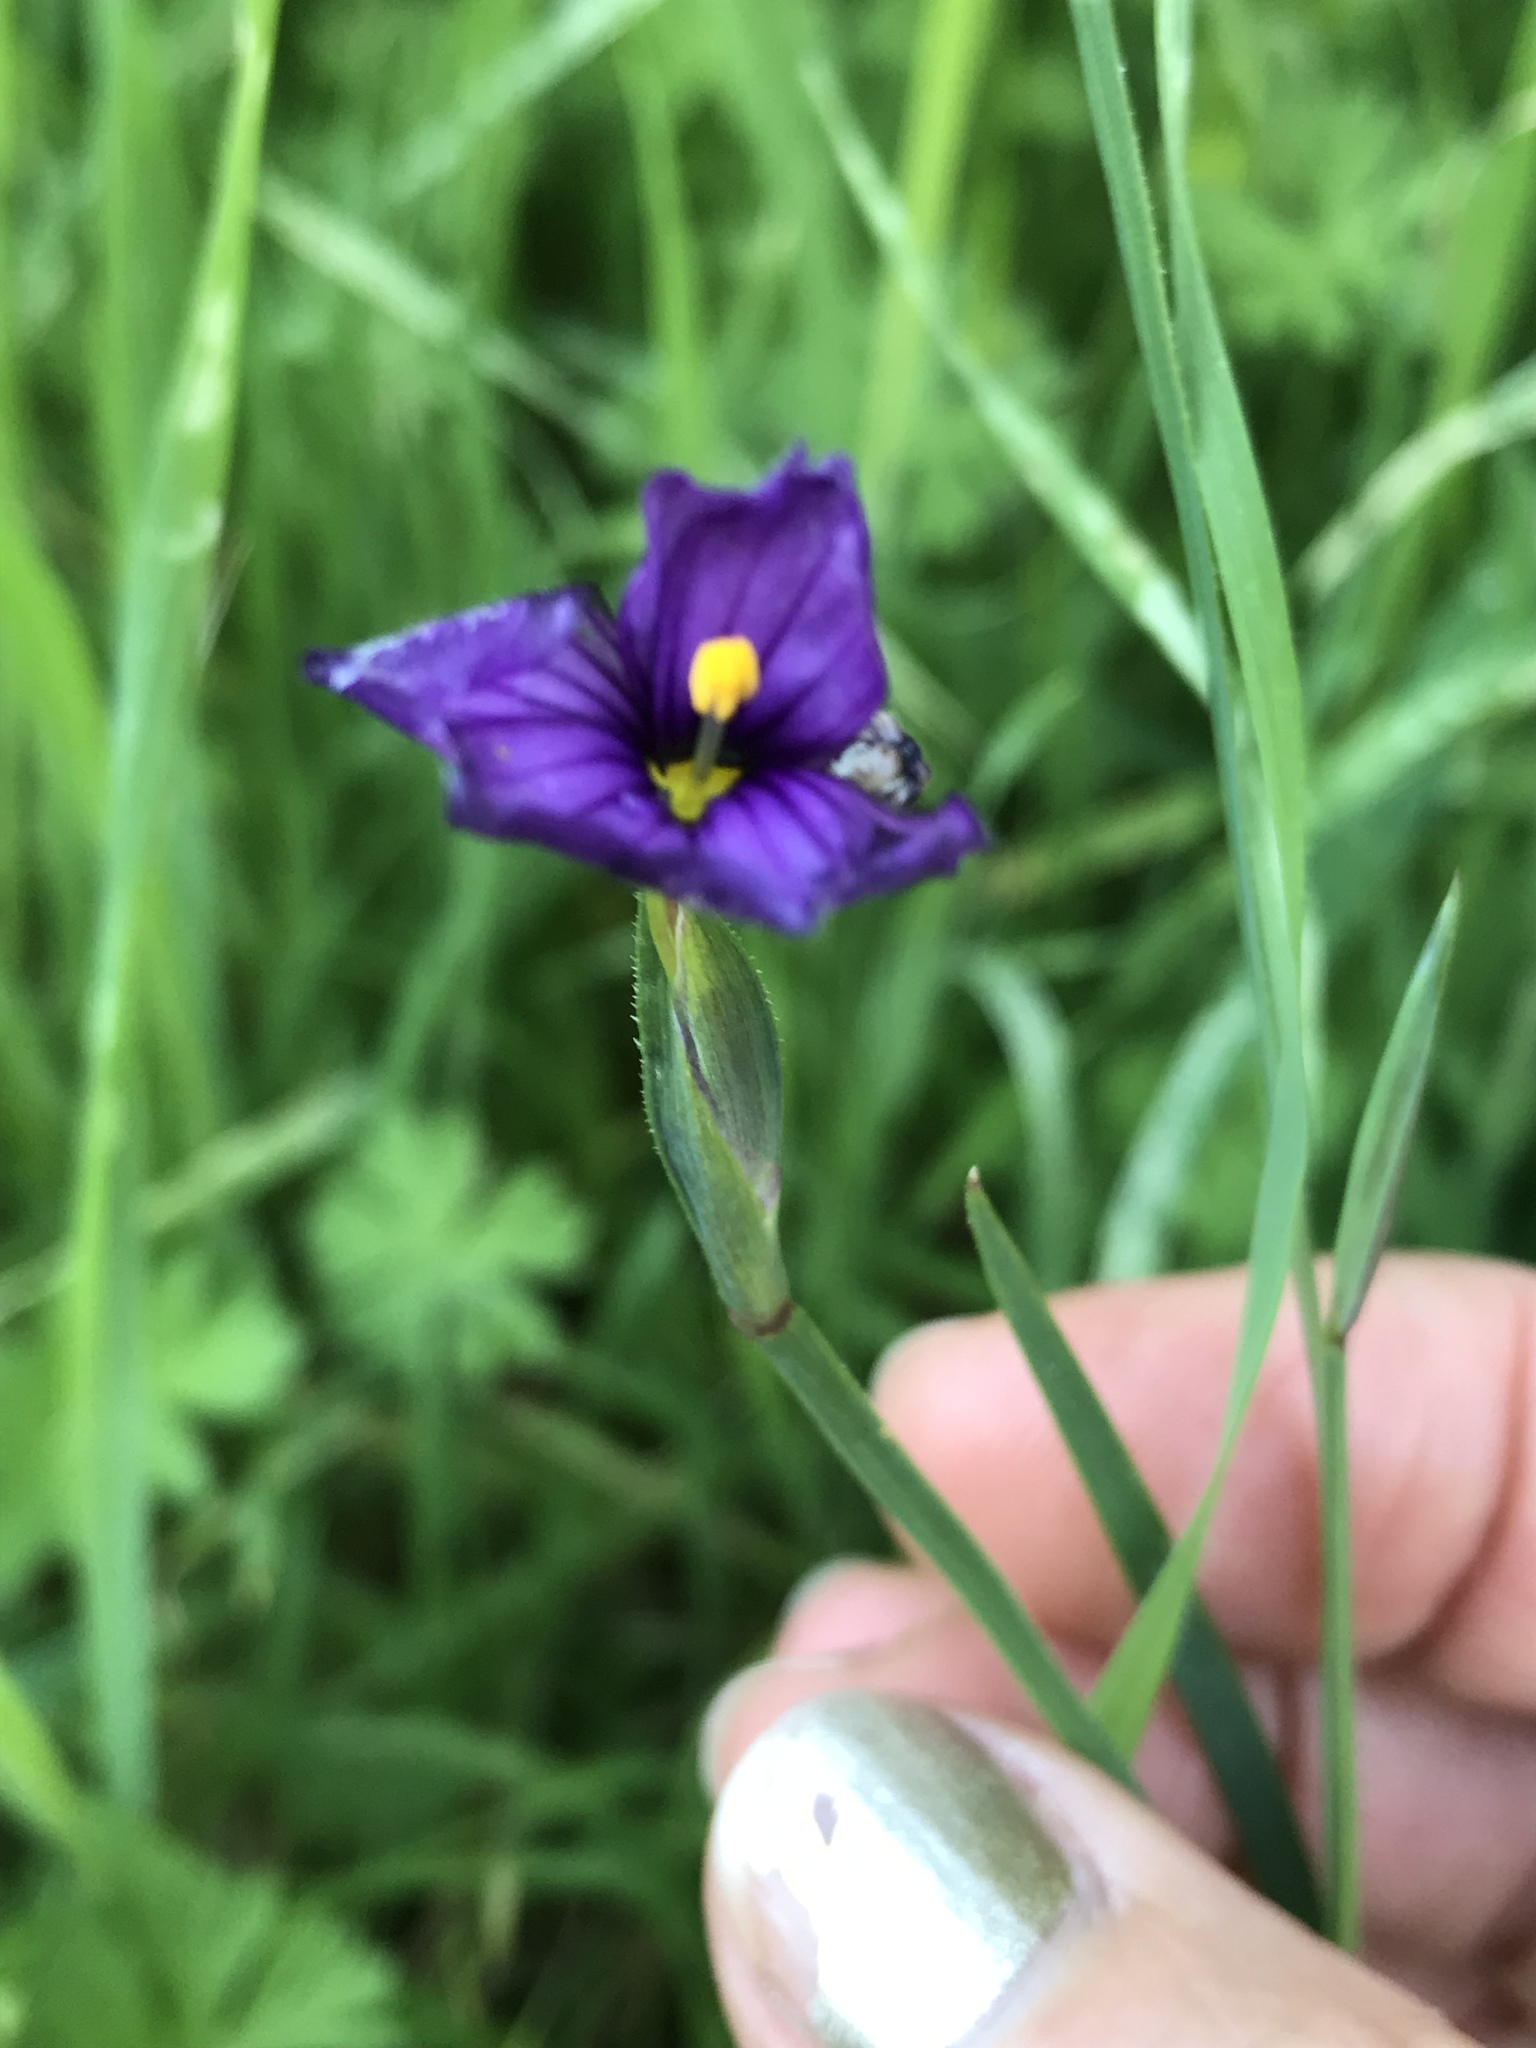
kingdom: Plantae
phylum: Tracheophyta
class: Liliopsida
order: Asparagales
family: Iridaceae
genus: Sisyrinchium
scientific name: Sisyrinchium bellum
